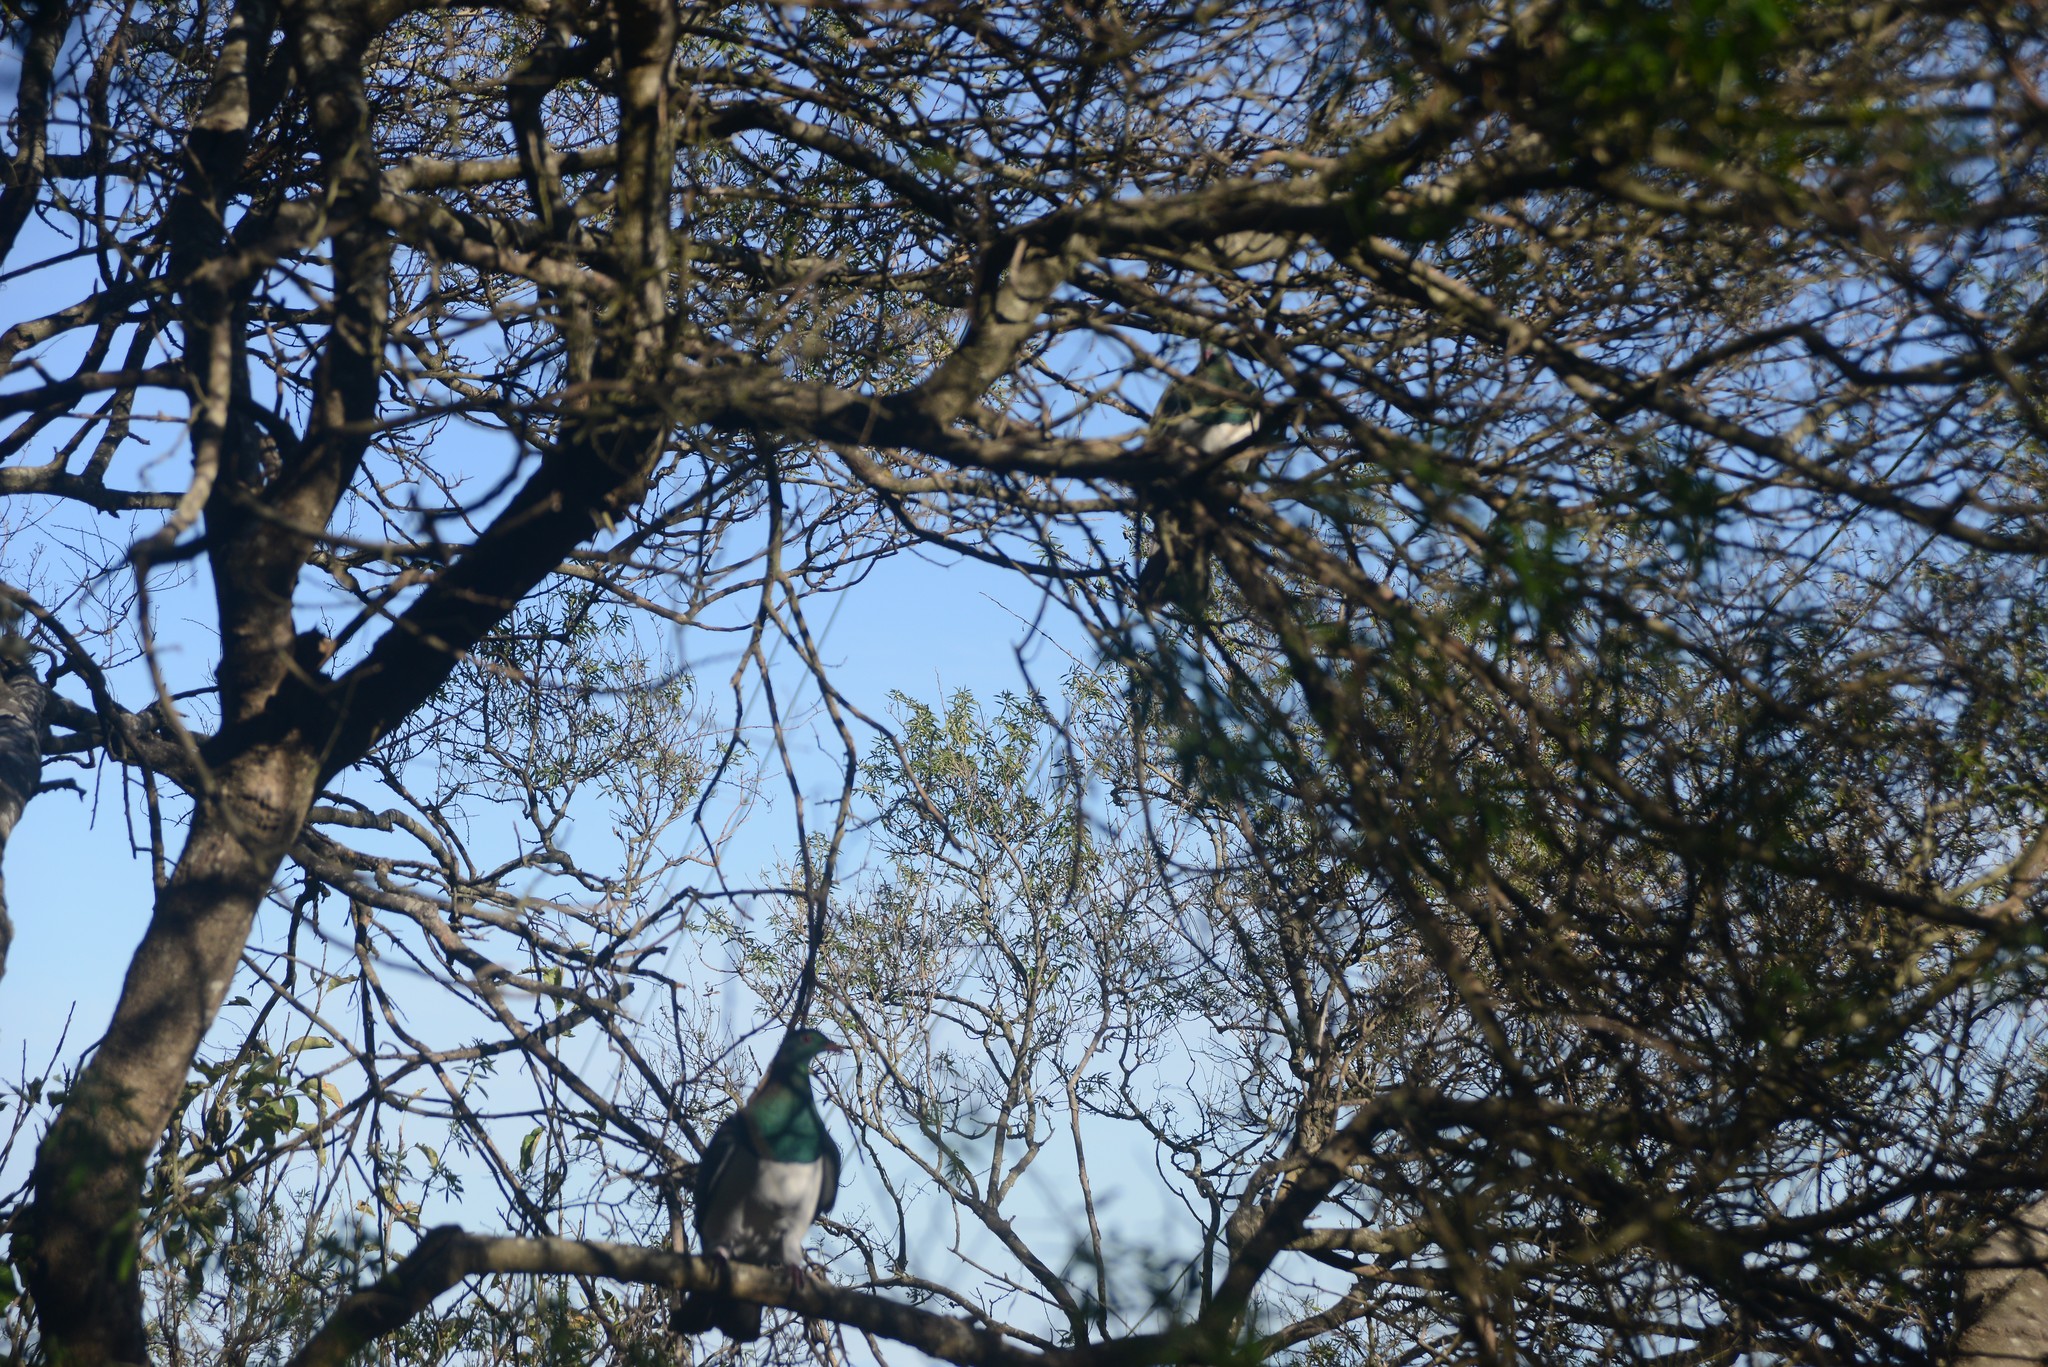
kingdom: Animalia
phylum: Chordata
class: Aves
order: Columbiformes
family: Columbidae
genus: Hemiphaga
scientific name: Hemiphaga novaeseelandiae
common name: New zealand pigeon
